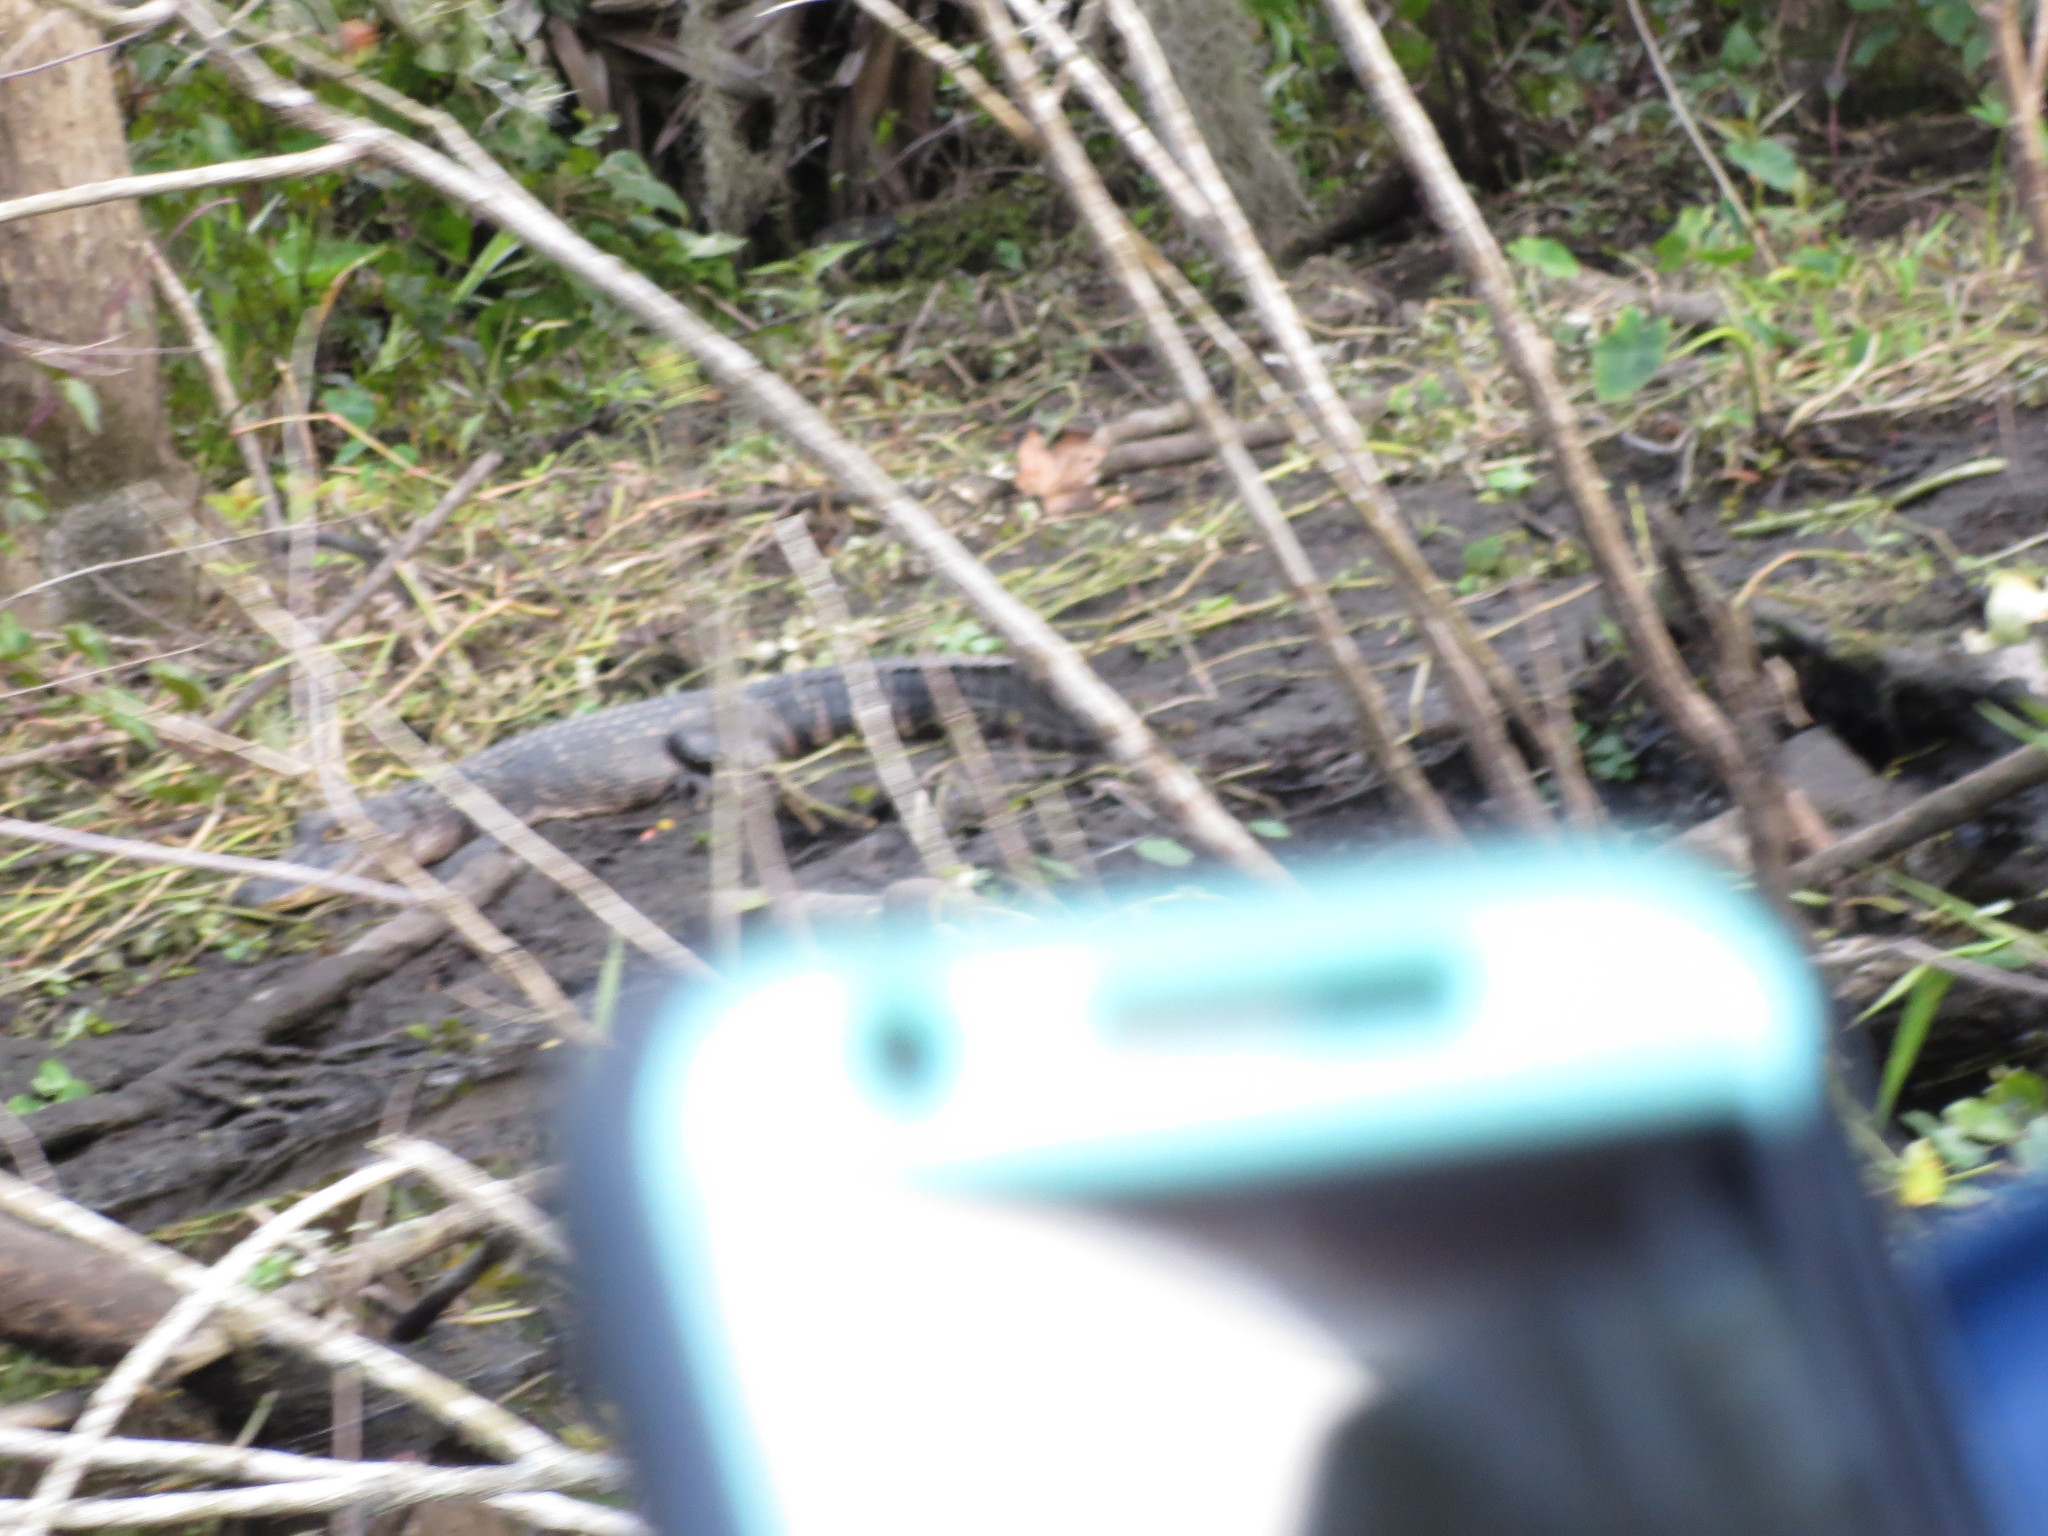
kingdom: Animalia
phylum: Chordata
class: Crocodylia
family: Alligatoridae
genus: Alligator
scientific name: Alligator mississippiensis
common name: American alligator
